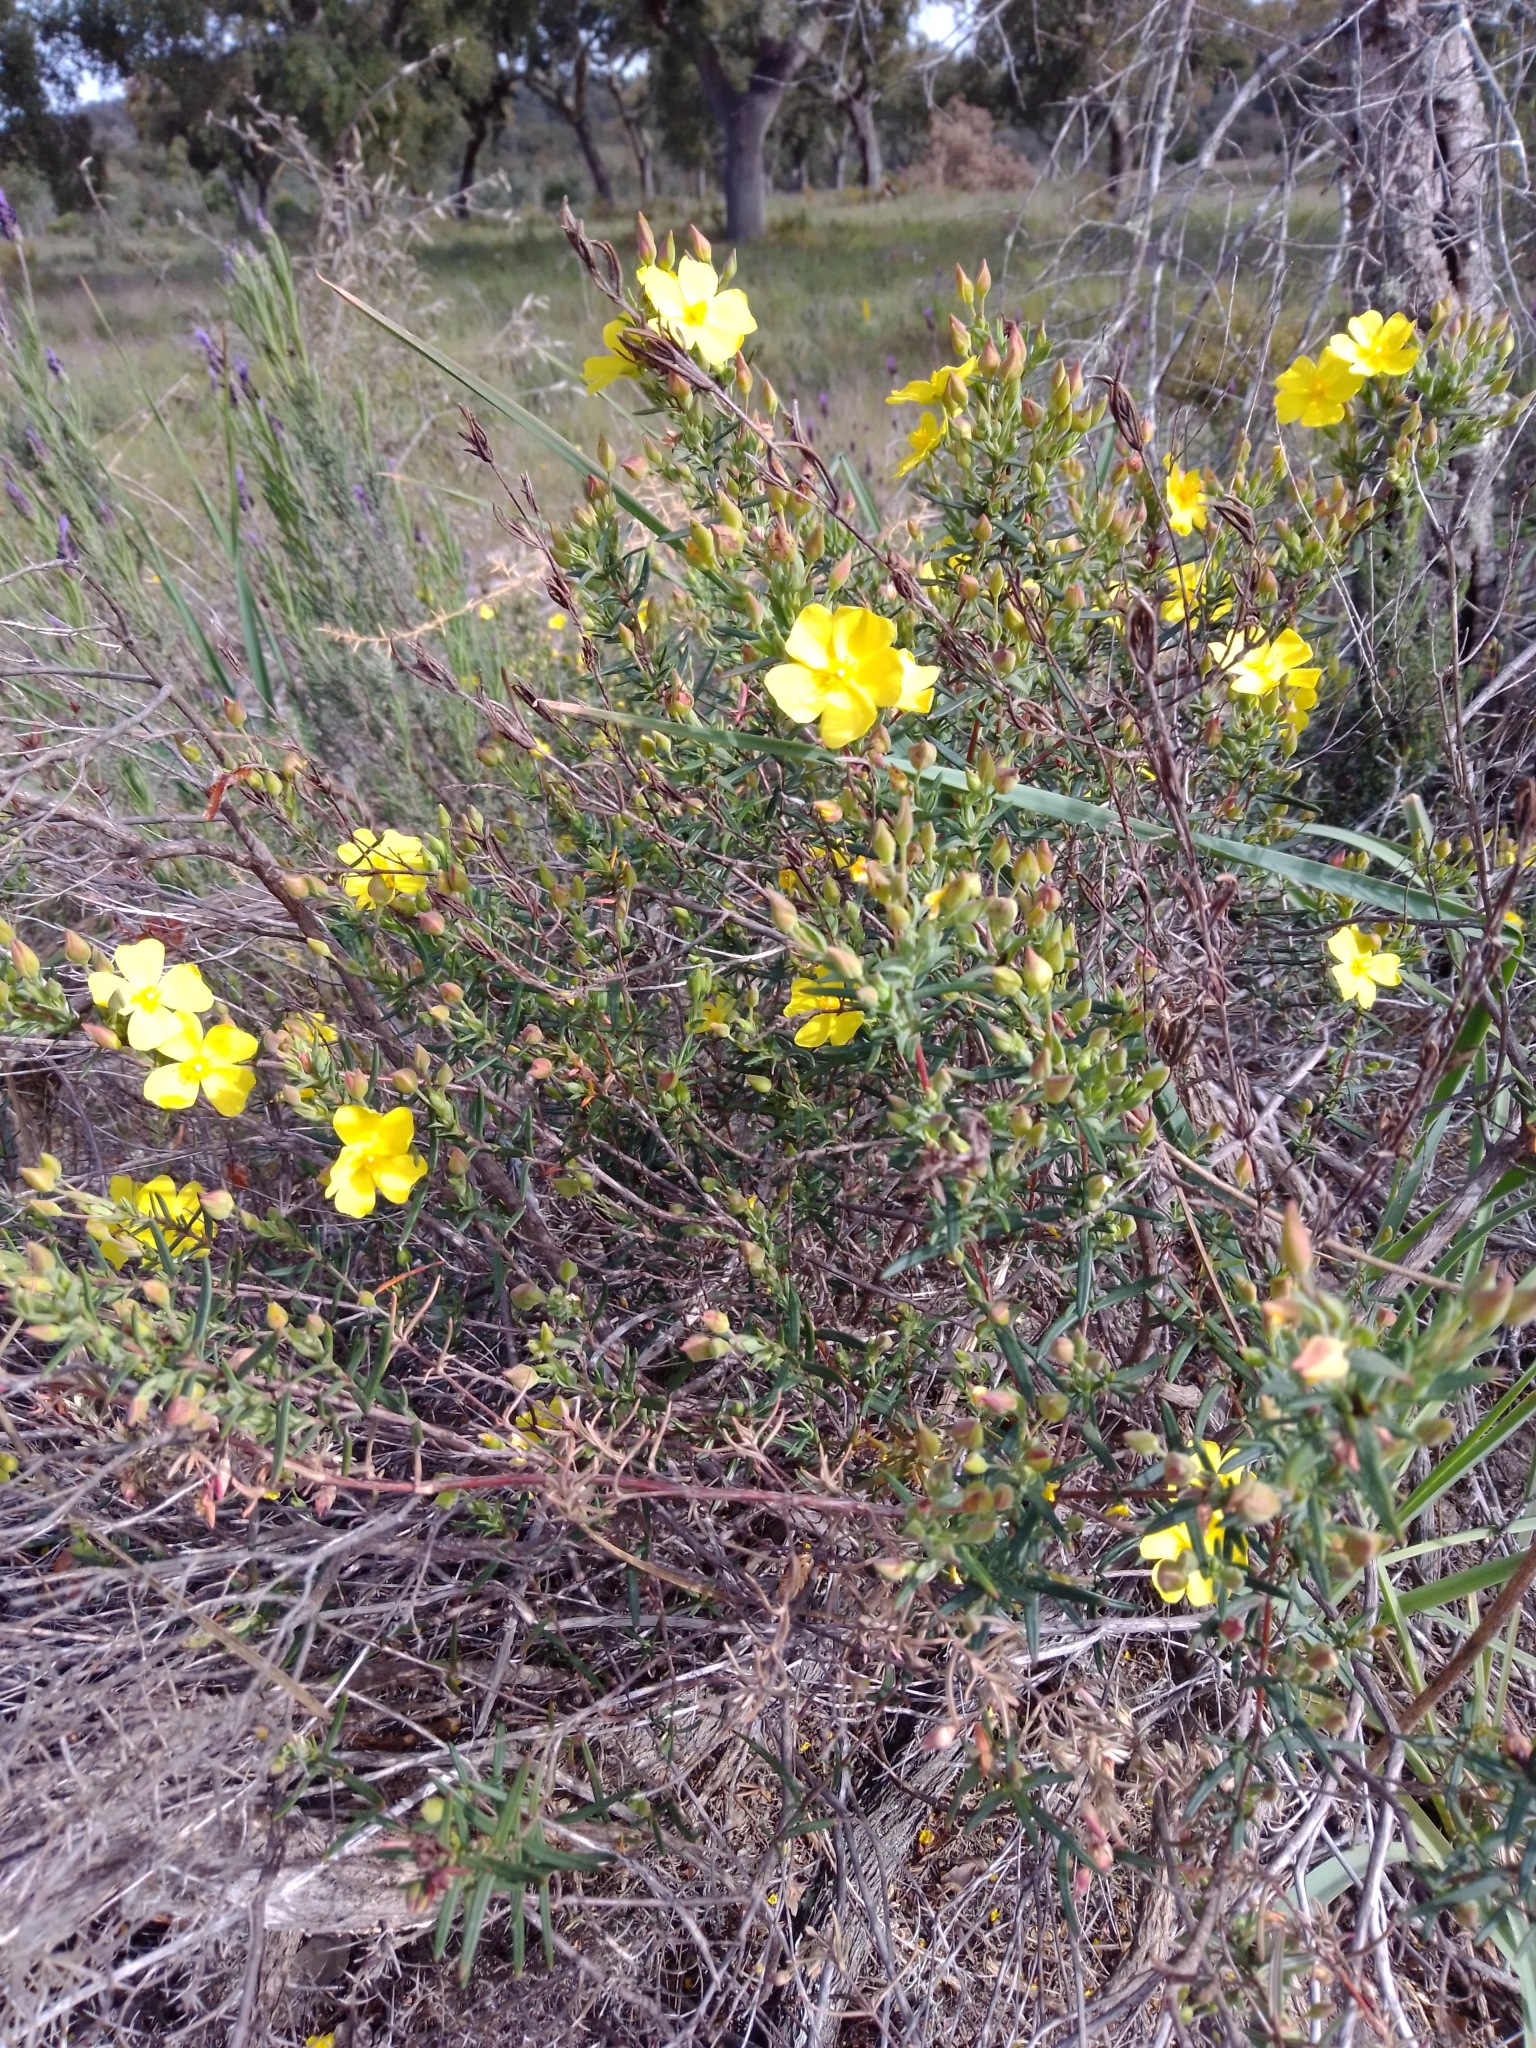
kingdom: Plantae
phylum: Tracheophyta
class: Magnoliopsida
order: Malvales
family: Cistaceae
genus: Halimium
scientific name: Halimium calycinum
